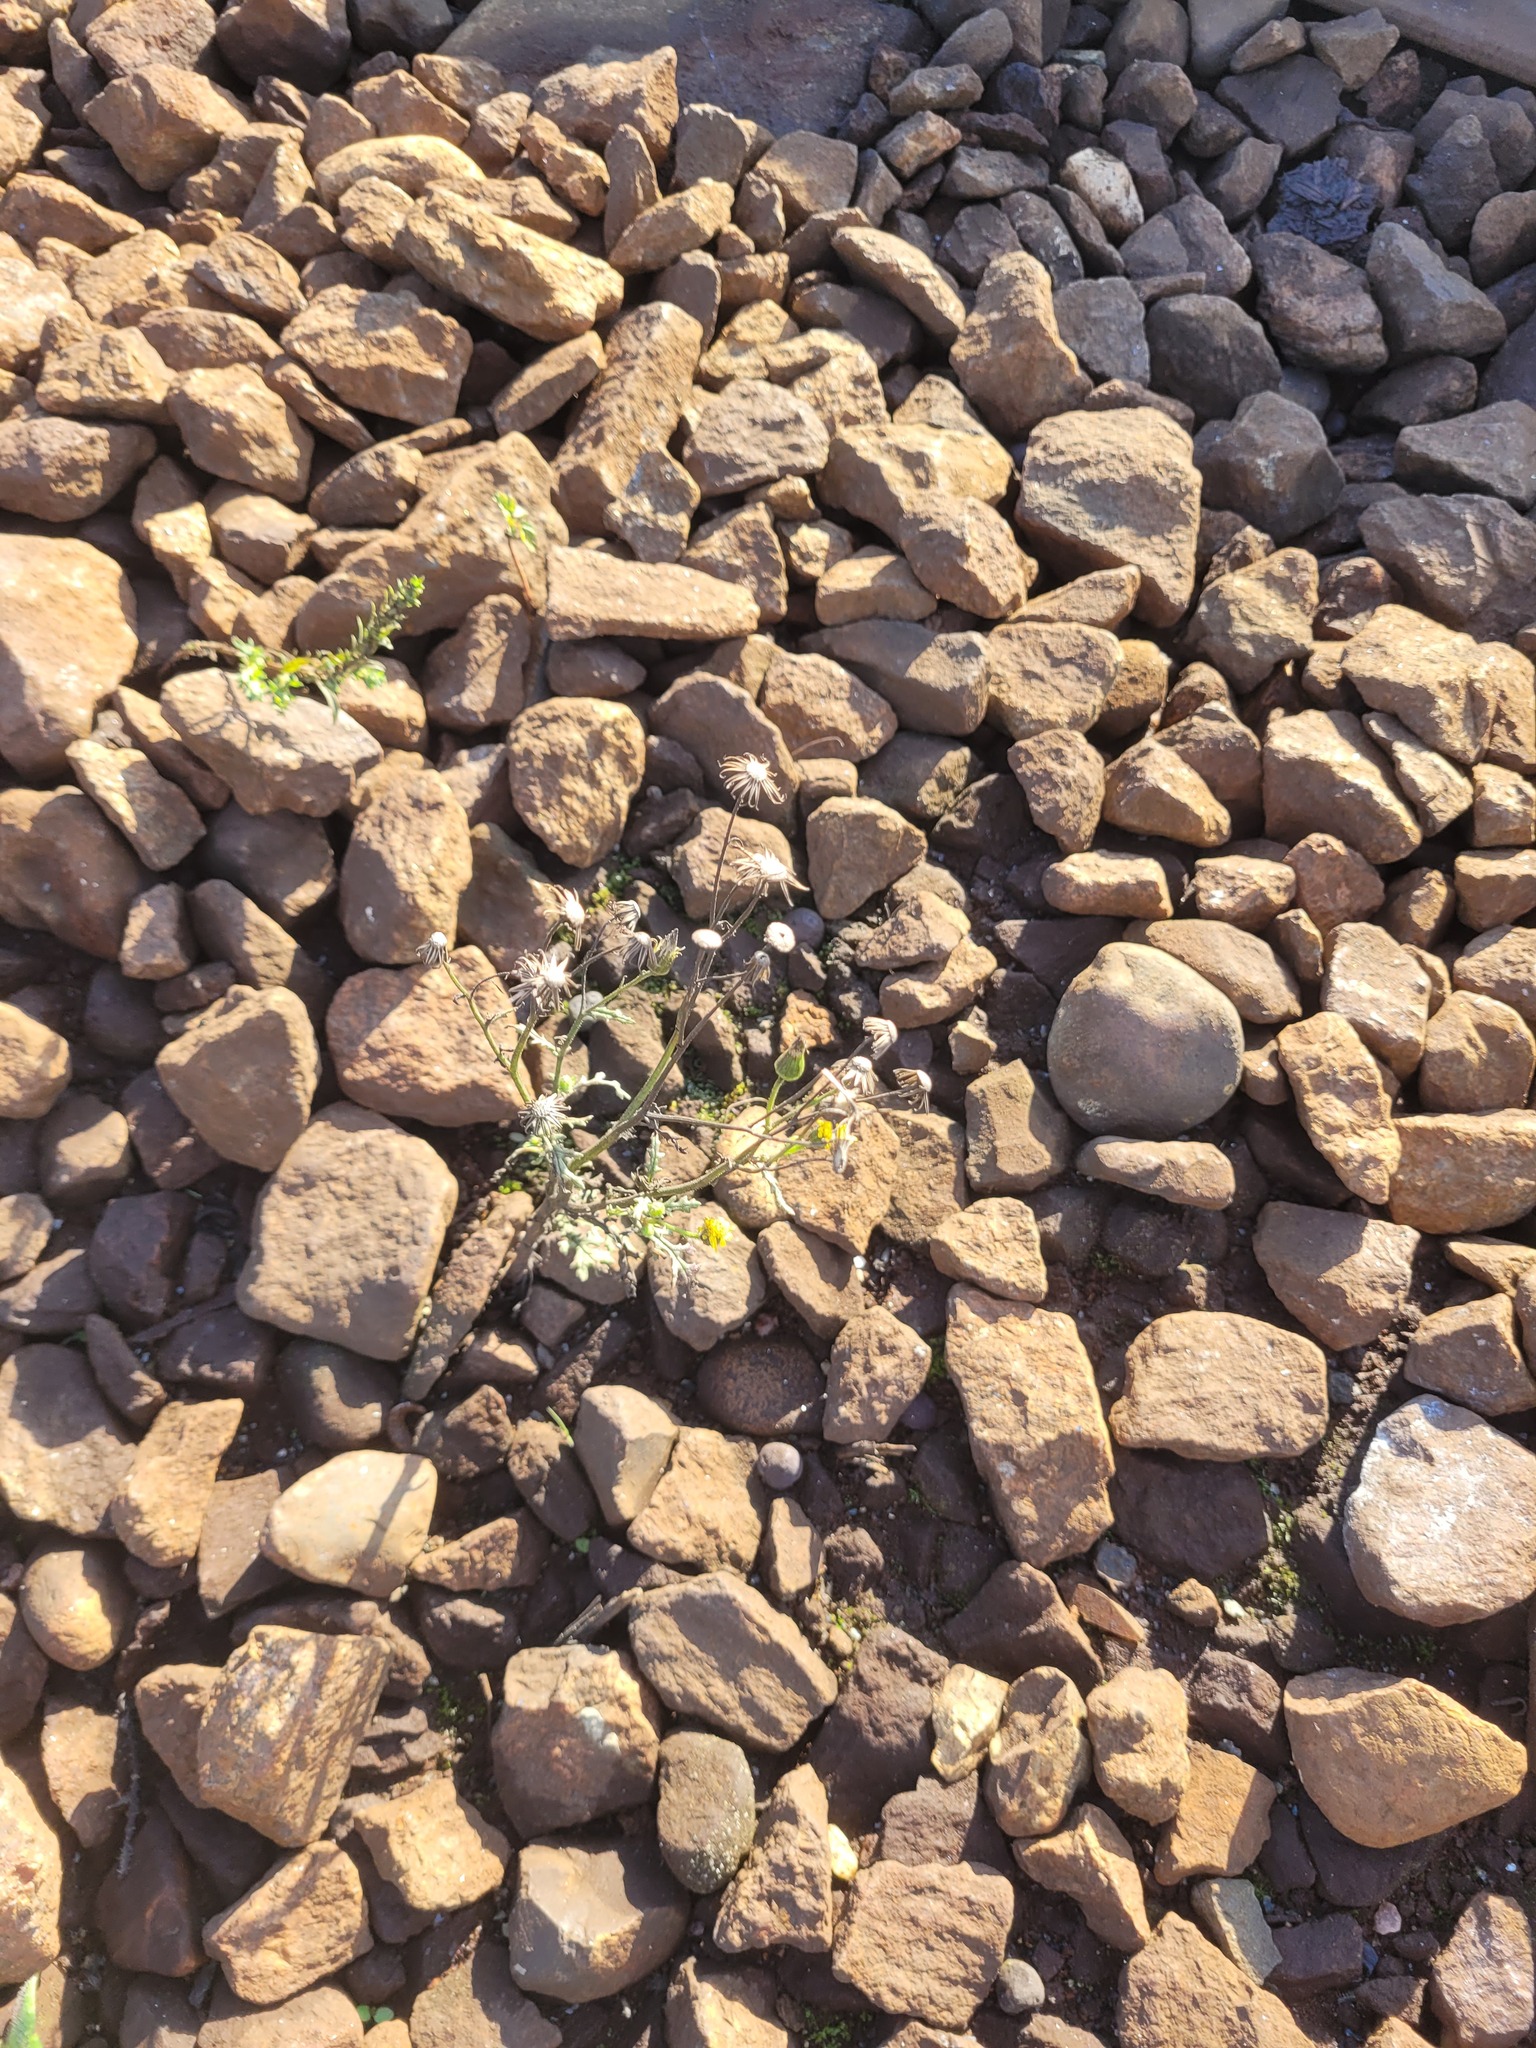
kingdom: Plantae
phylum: Tracheophyta
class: Magnoliopsida
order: Asterales
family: Asteraceae
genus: Senecio
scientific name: Senecio viscosus
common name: Sticky groundsel
